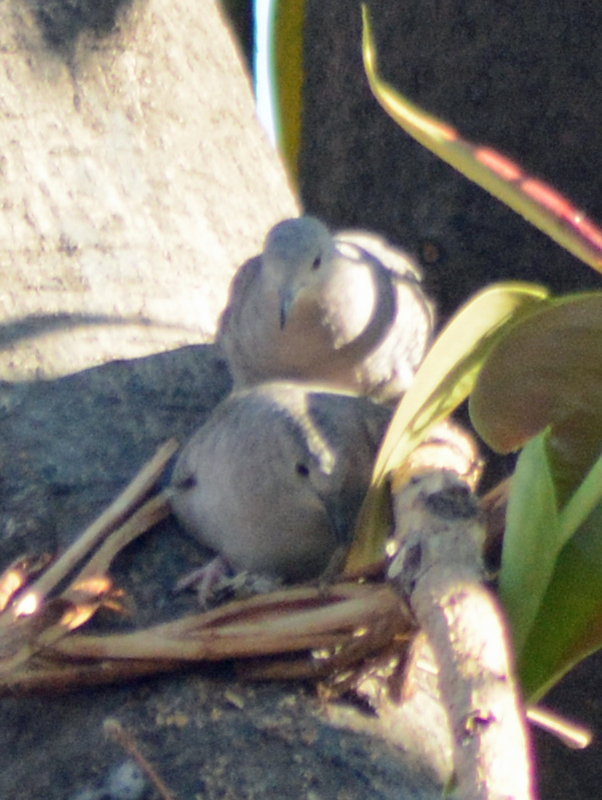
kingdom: Animalia
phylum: Chordata
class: Aves
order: Columbiformes
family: Columbidae
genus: Columbina
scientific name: Columbina inca
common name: Inca dove
